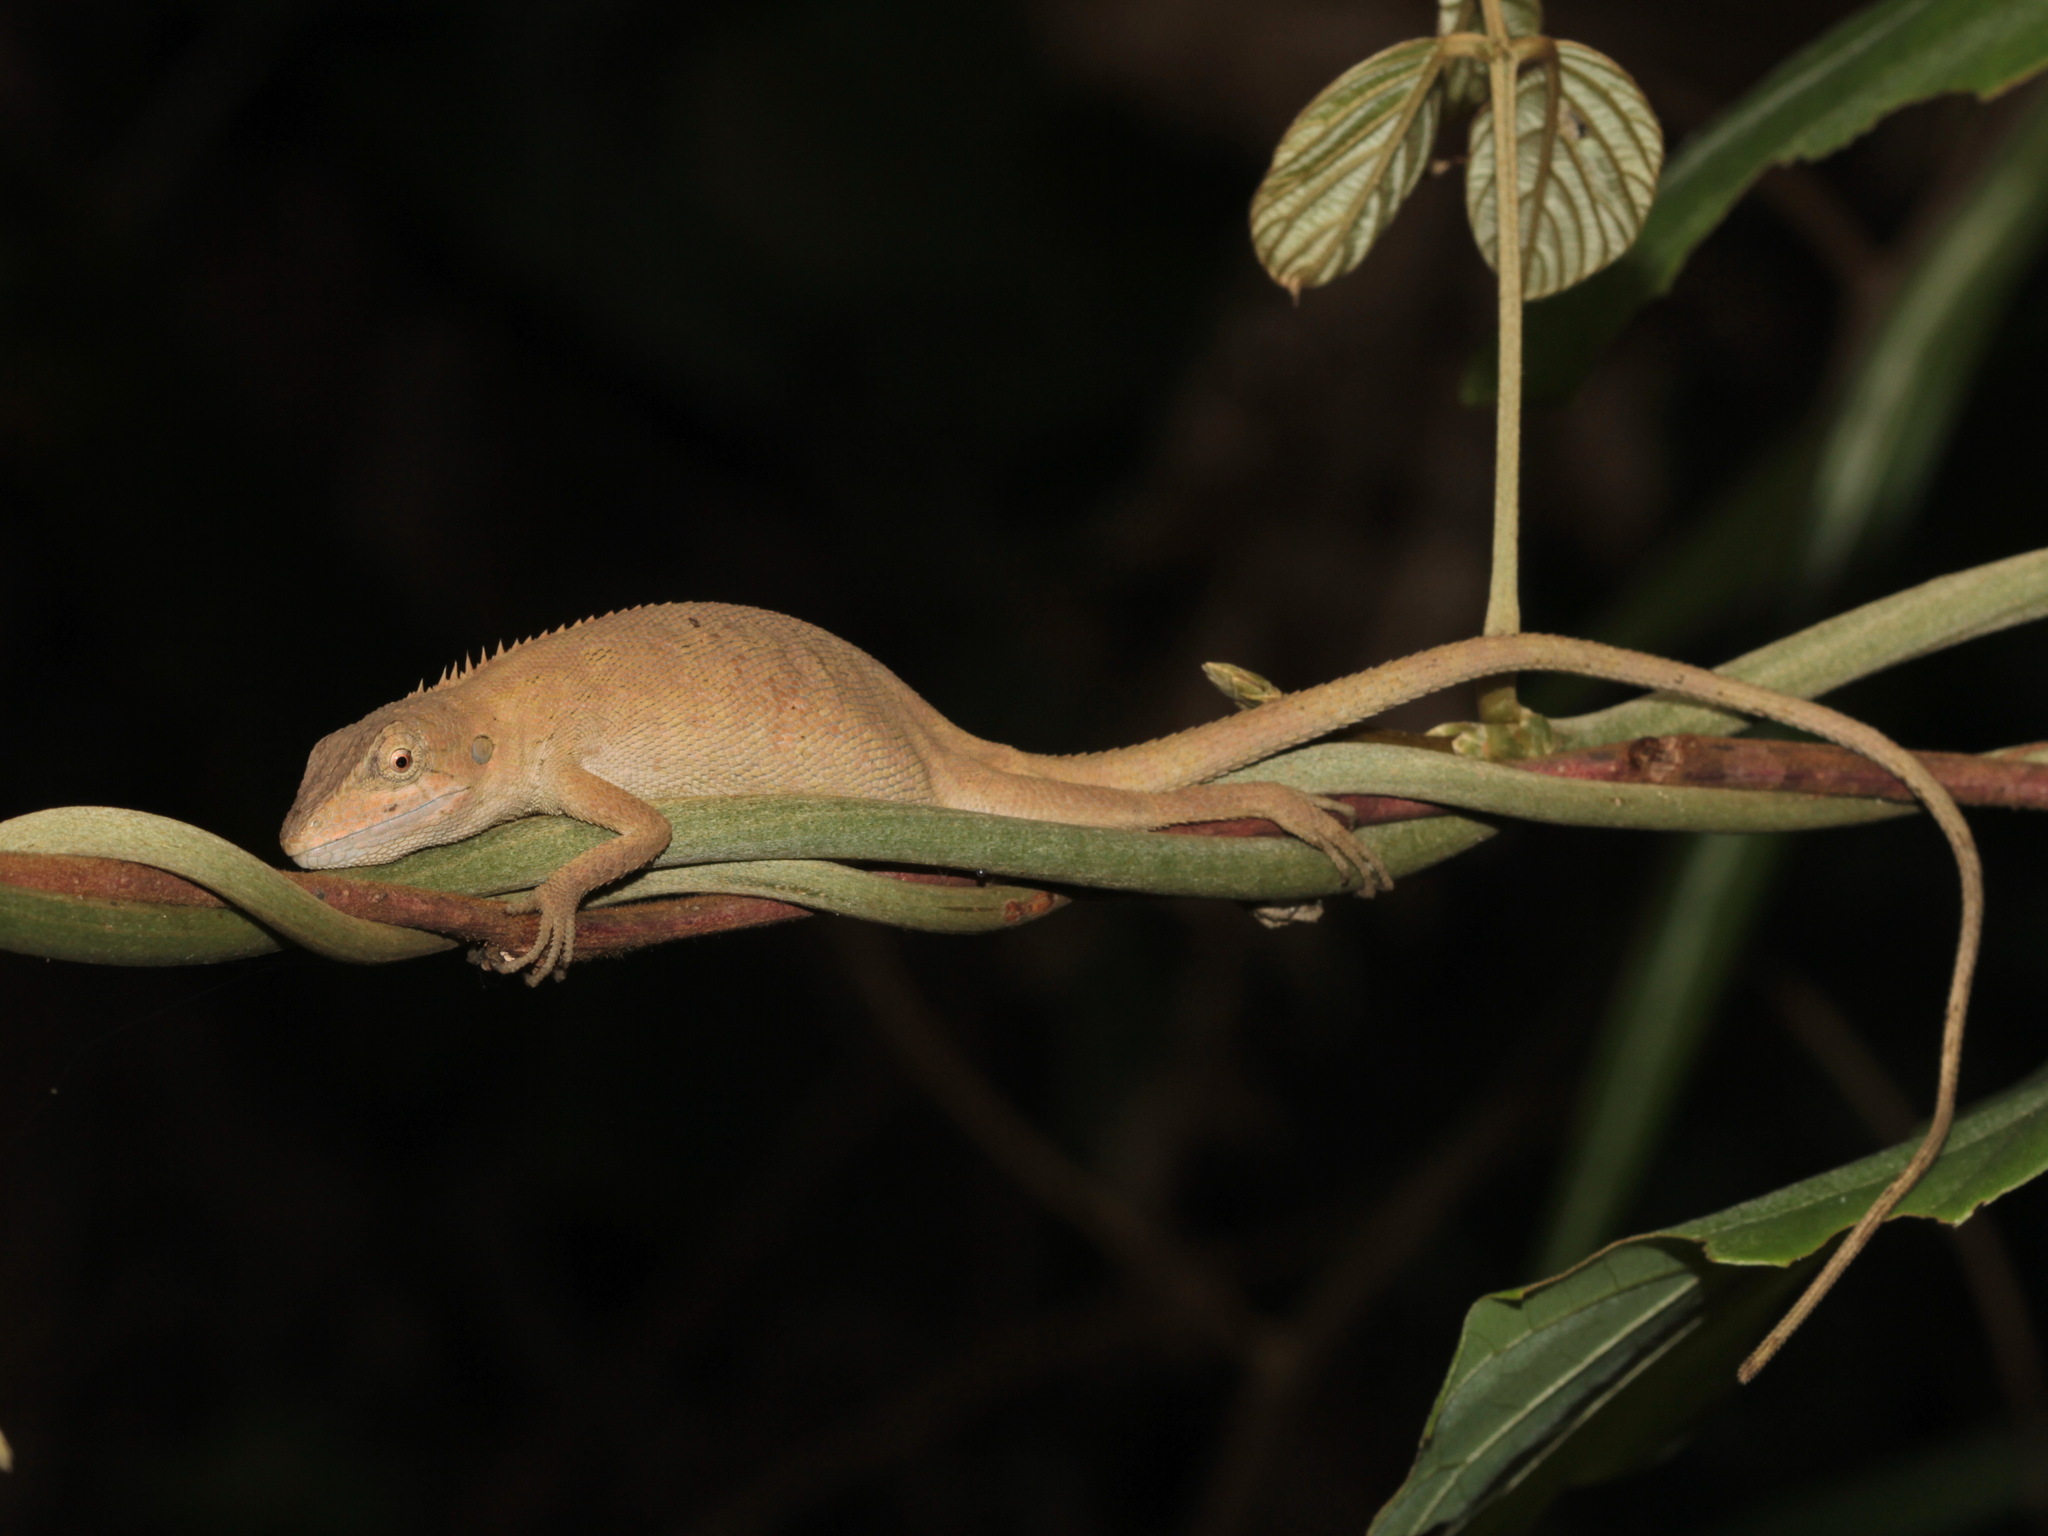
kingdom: Animalia
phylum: Chordata
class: Squamata
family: Agamidae
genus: Pseudocalotes
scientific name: Pseudocalotes microlepis
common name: Burmese false bloodsucker
